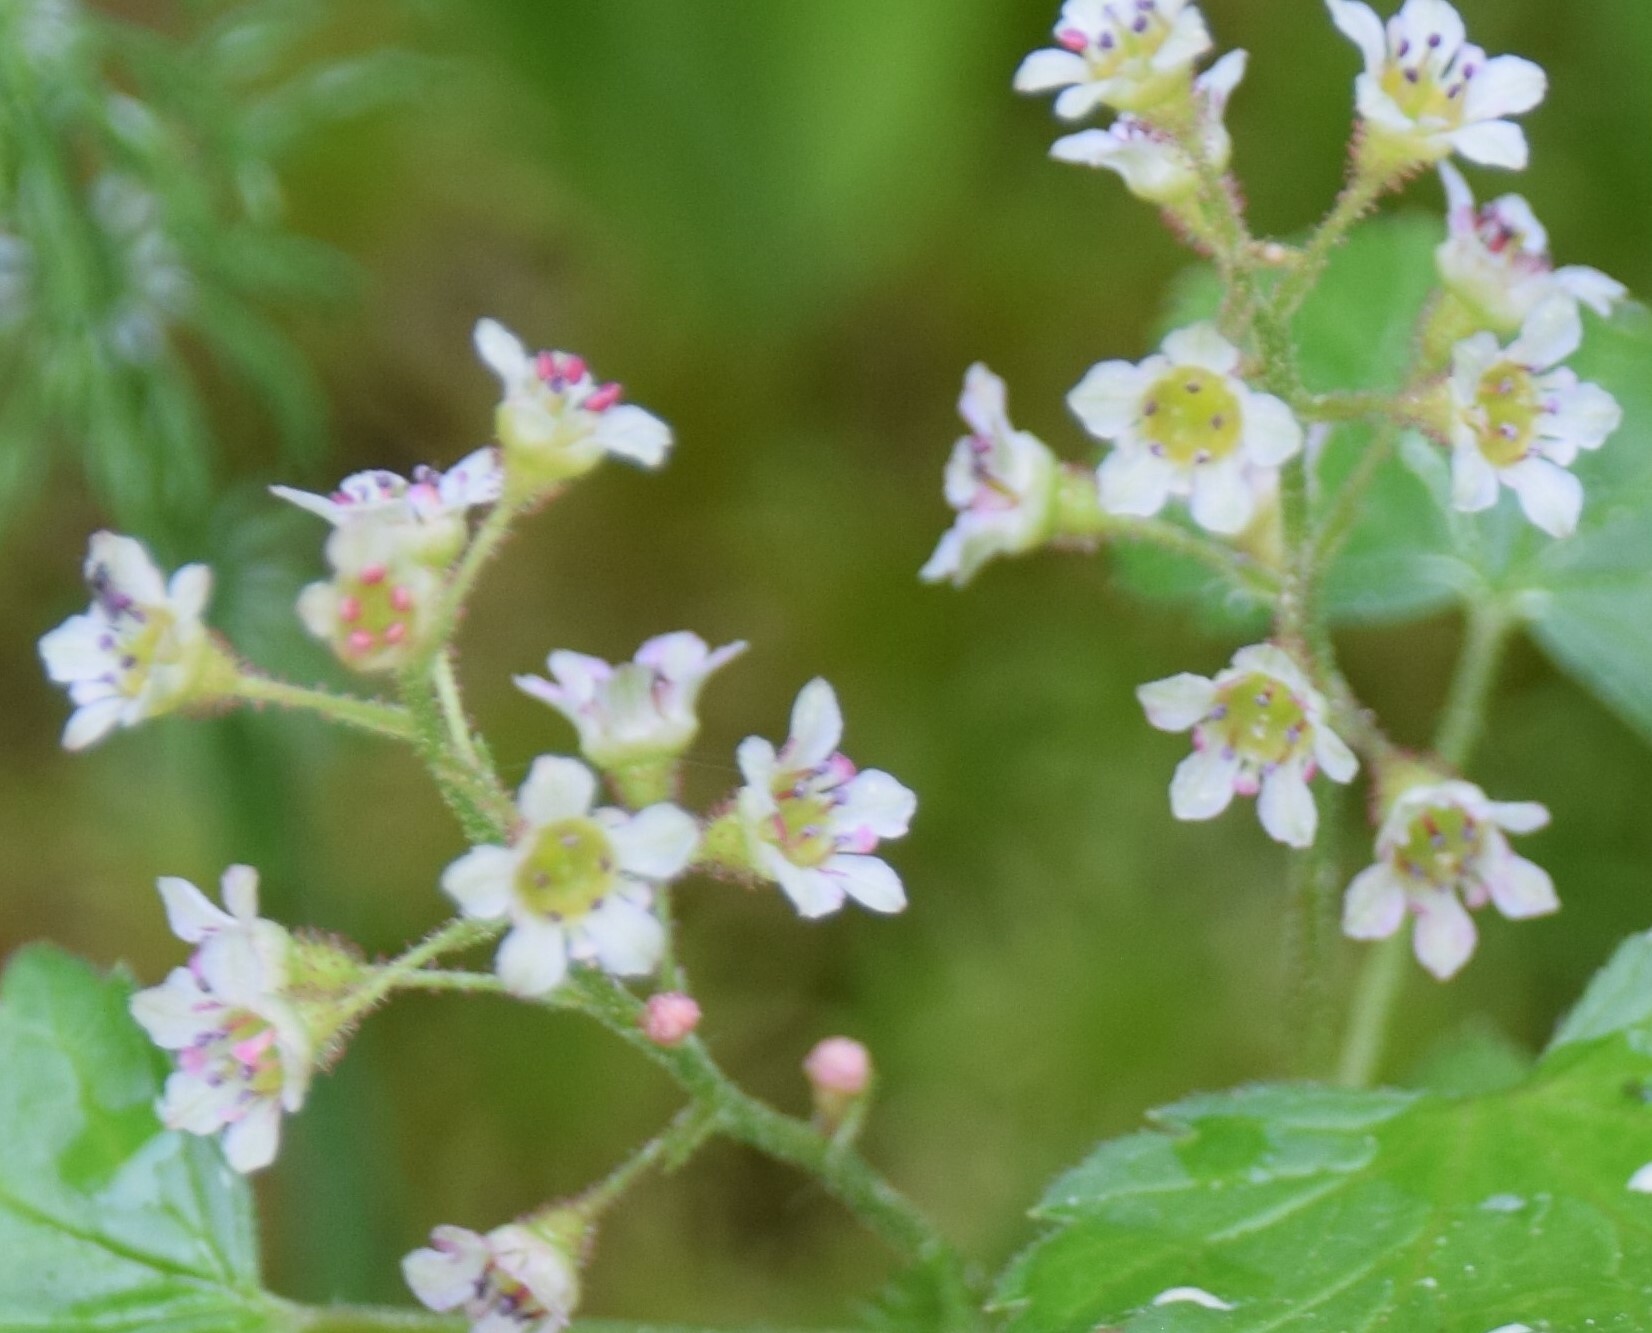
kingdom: Plantae
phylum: Tracheophyta
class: Magnoliopsida
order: Saxifragales
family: Grossulariaceae
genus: Ribes
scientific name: Ribes glandulosum
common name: Skunk currant
